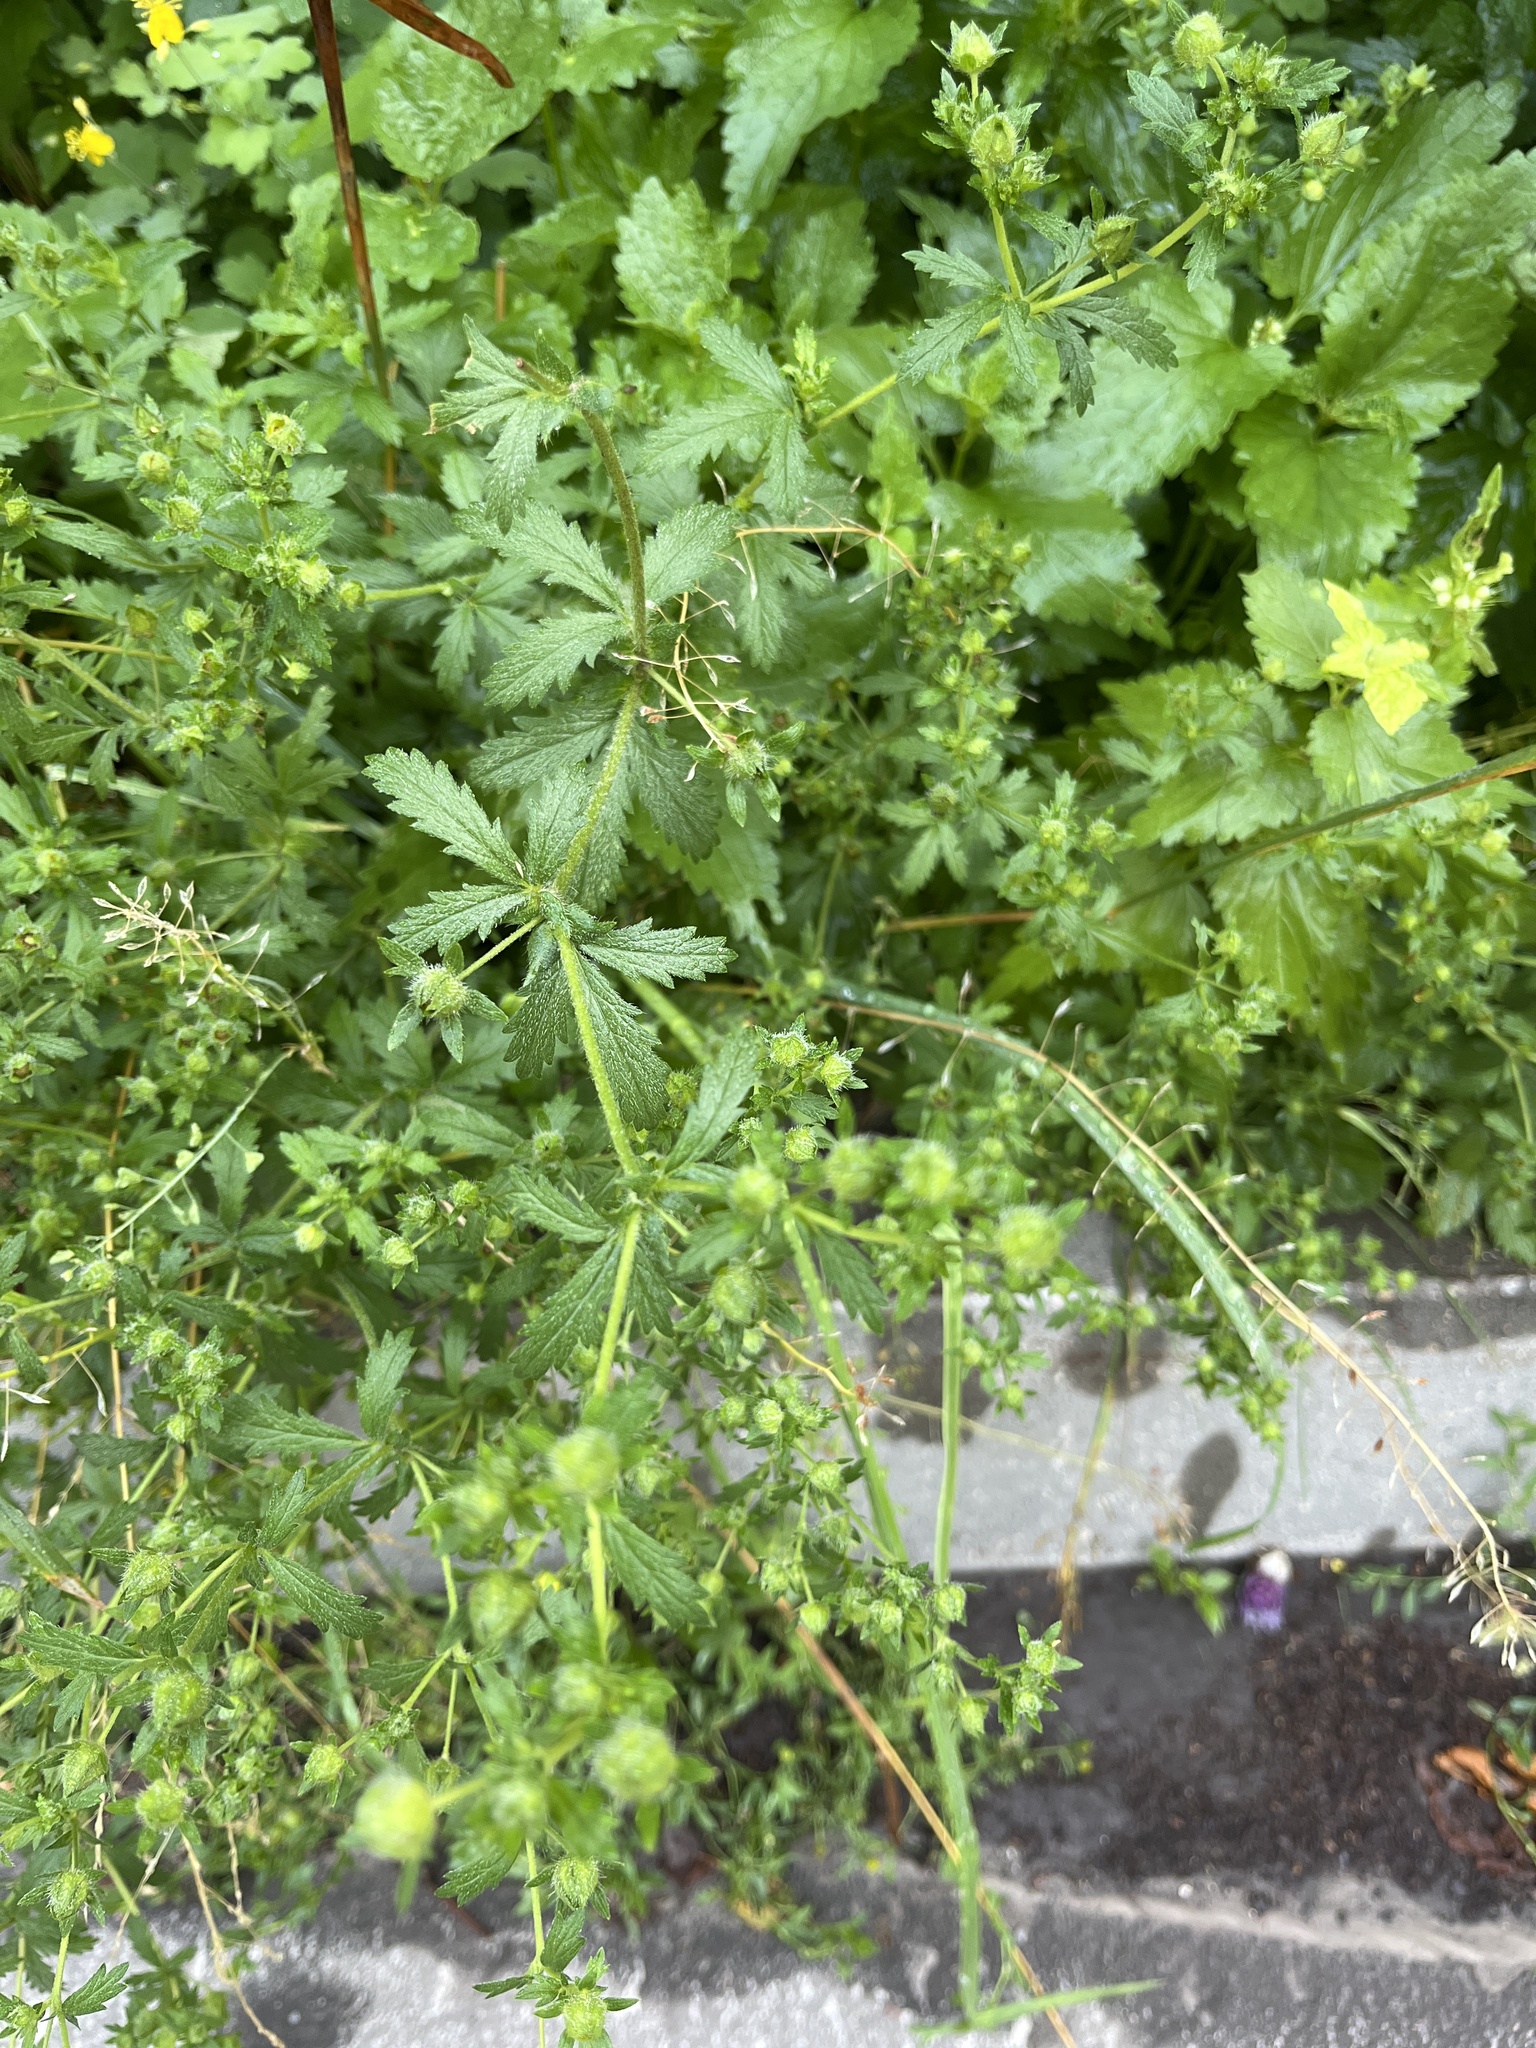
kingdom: Plantae
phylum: Tracheophyta
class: Magnoliopsida
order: Rosales
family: Rosaceae
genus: Potentilla
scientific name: Potentilla norvegica
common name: Ternate-leaved cinquefoil
